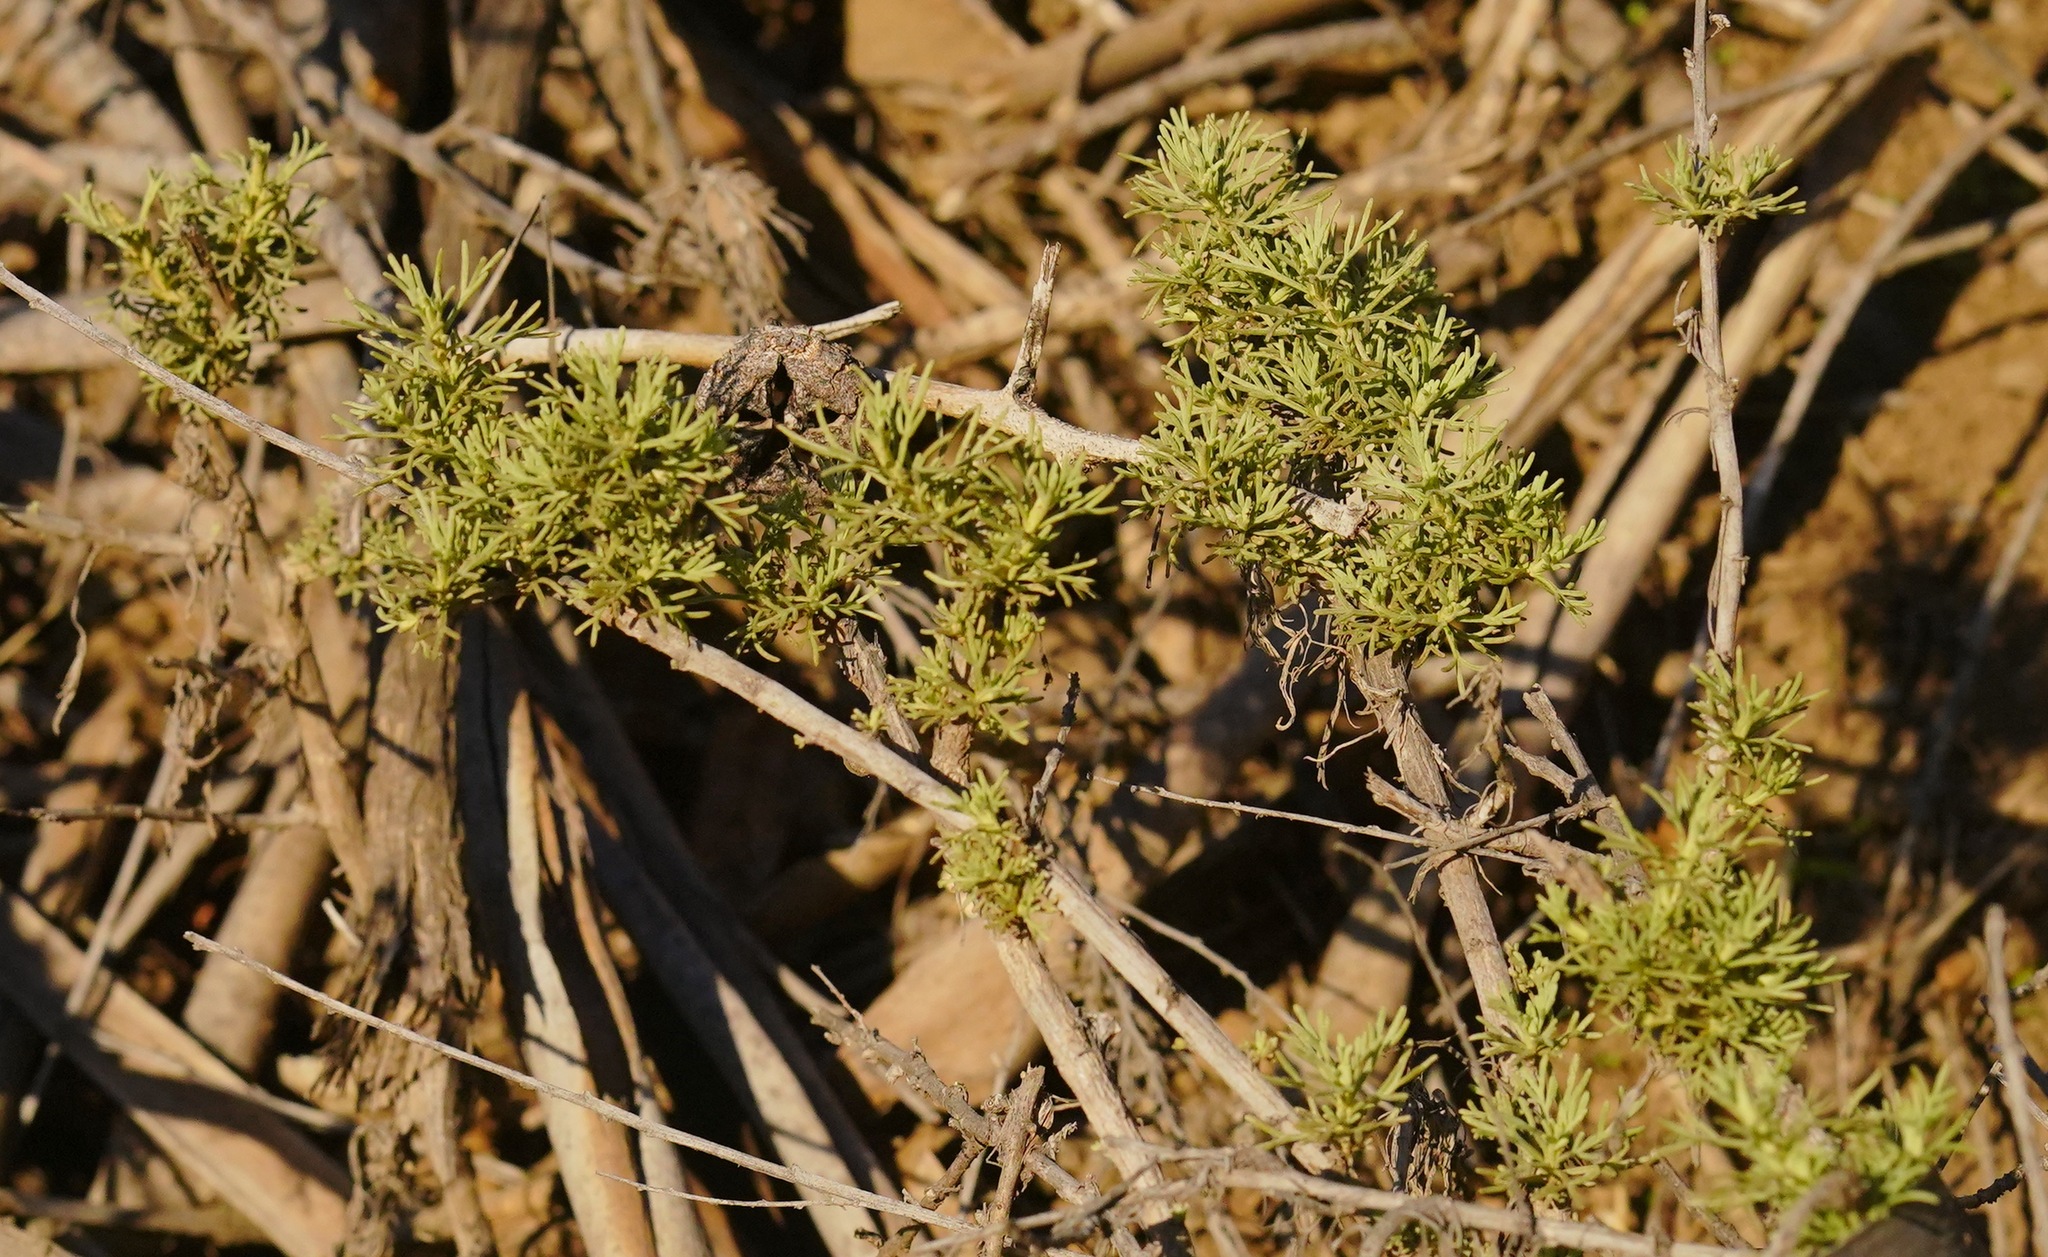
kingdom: Plantae
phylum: Tracheophyta
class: Magnoliopsida
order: Asterales
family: Asteraceae
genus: Artemisia
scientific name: Artemisia californica
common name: California sagebrush
